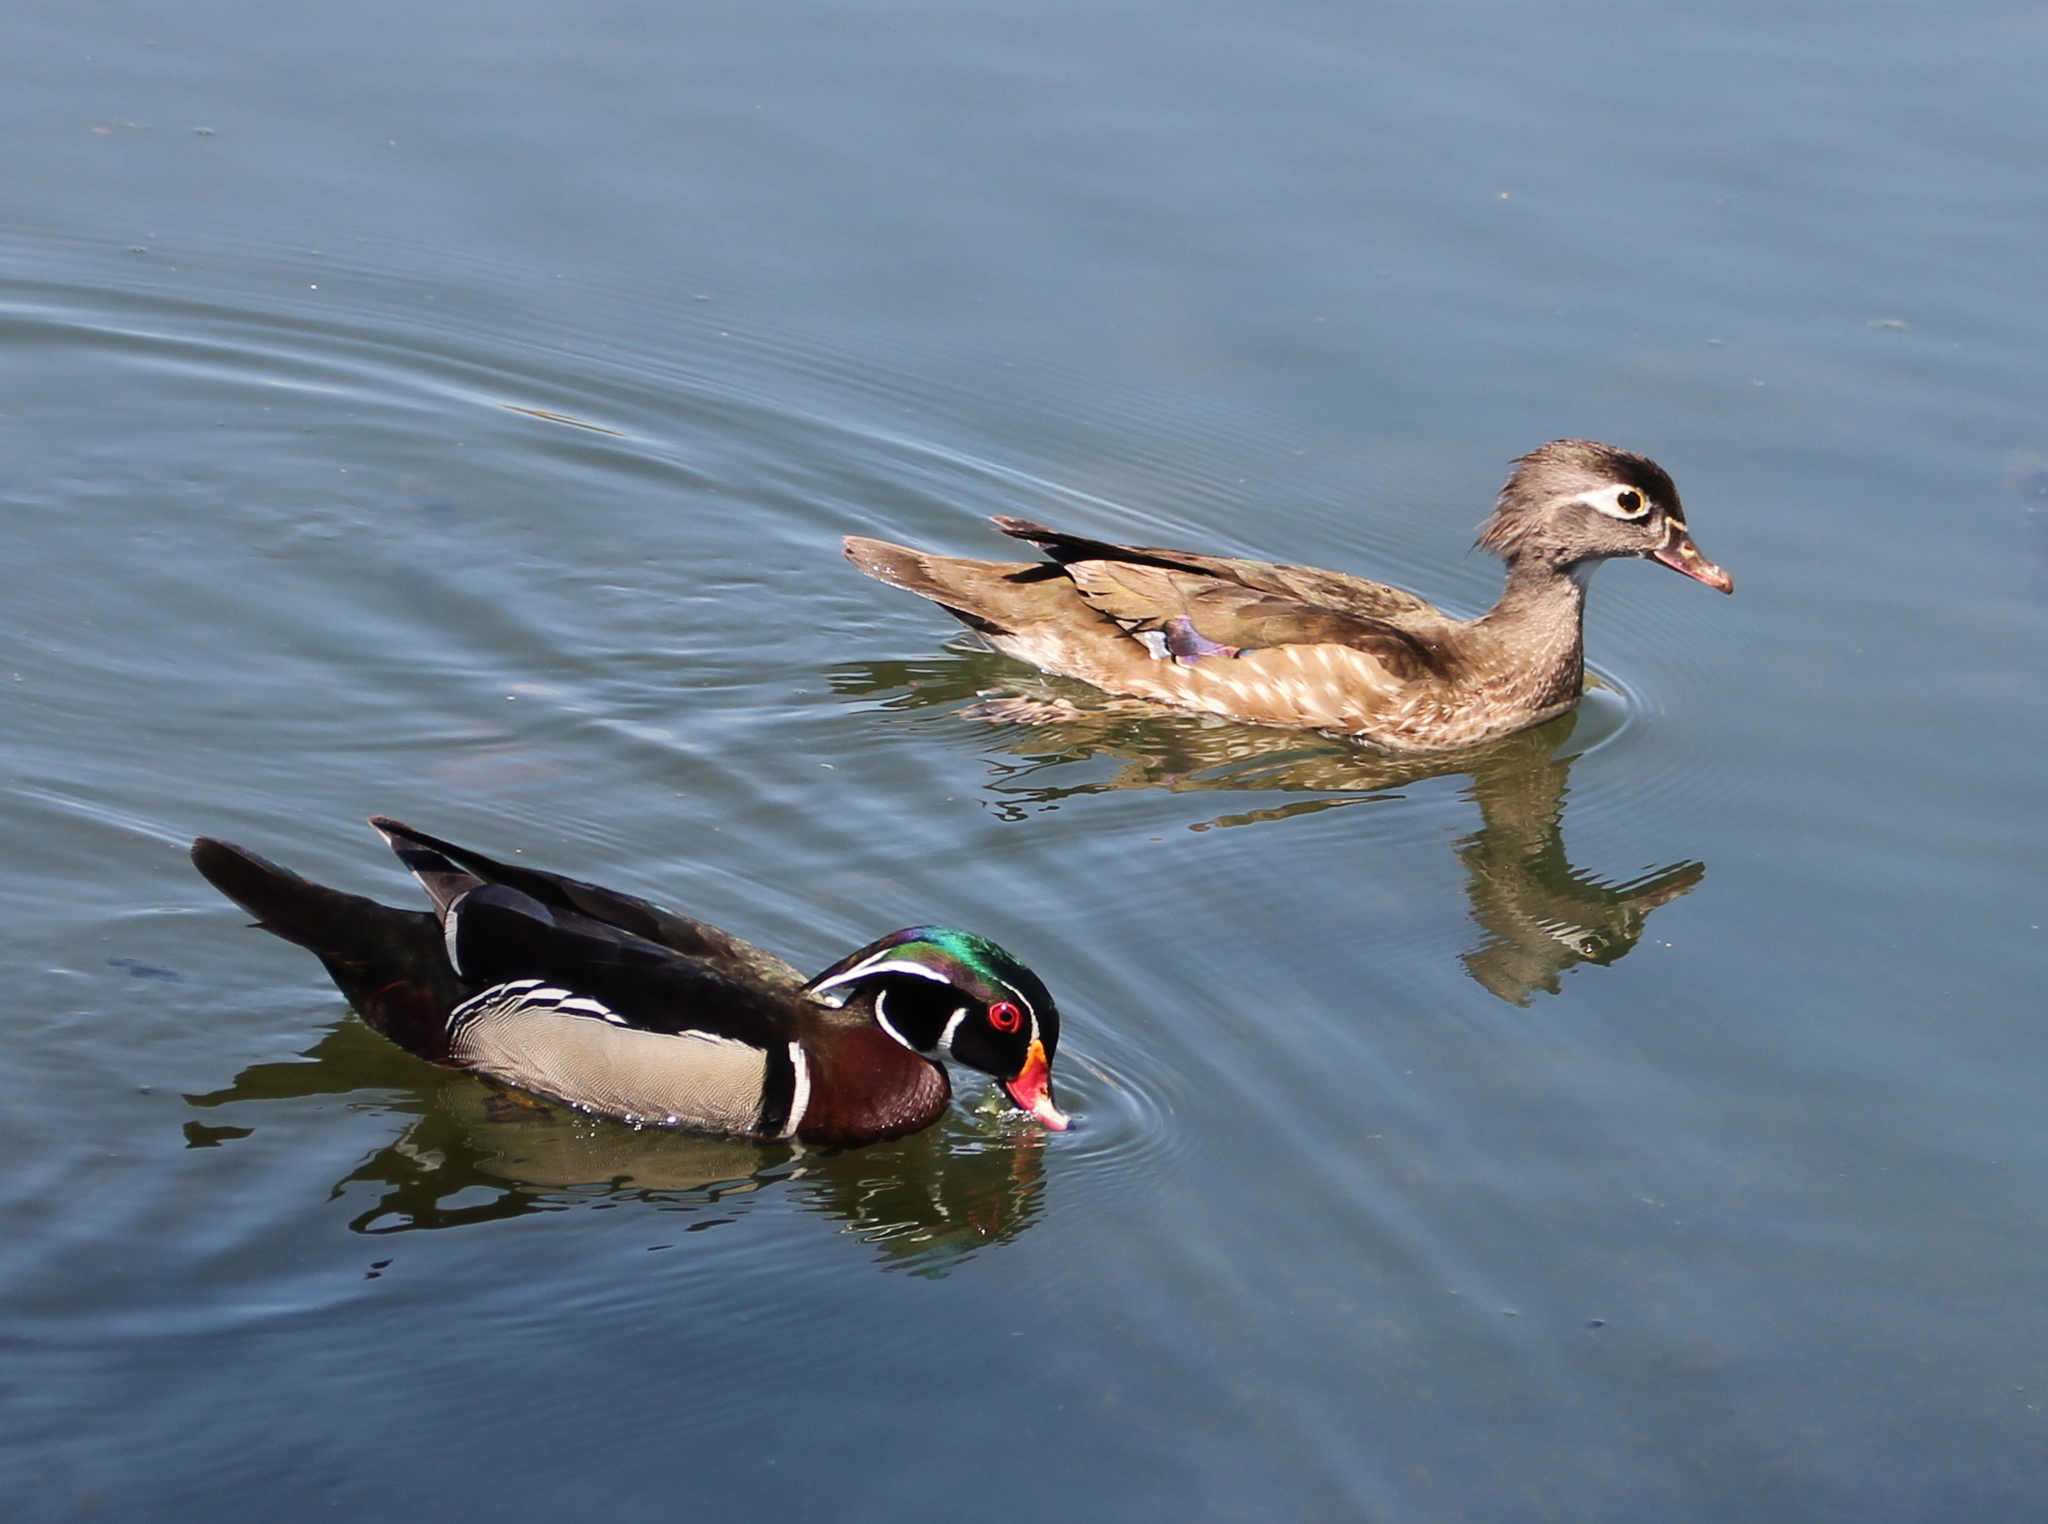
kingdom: Animalia
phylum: Chordata
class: Aves
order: Anseriformes
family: Anatidae
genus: Aix
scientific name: Aix sponsa
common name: Wood duck
